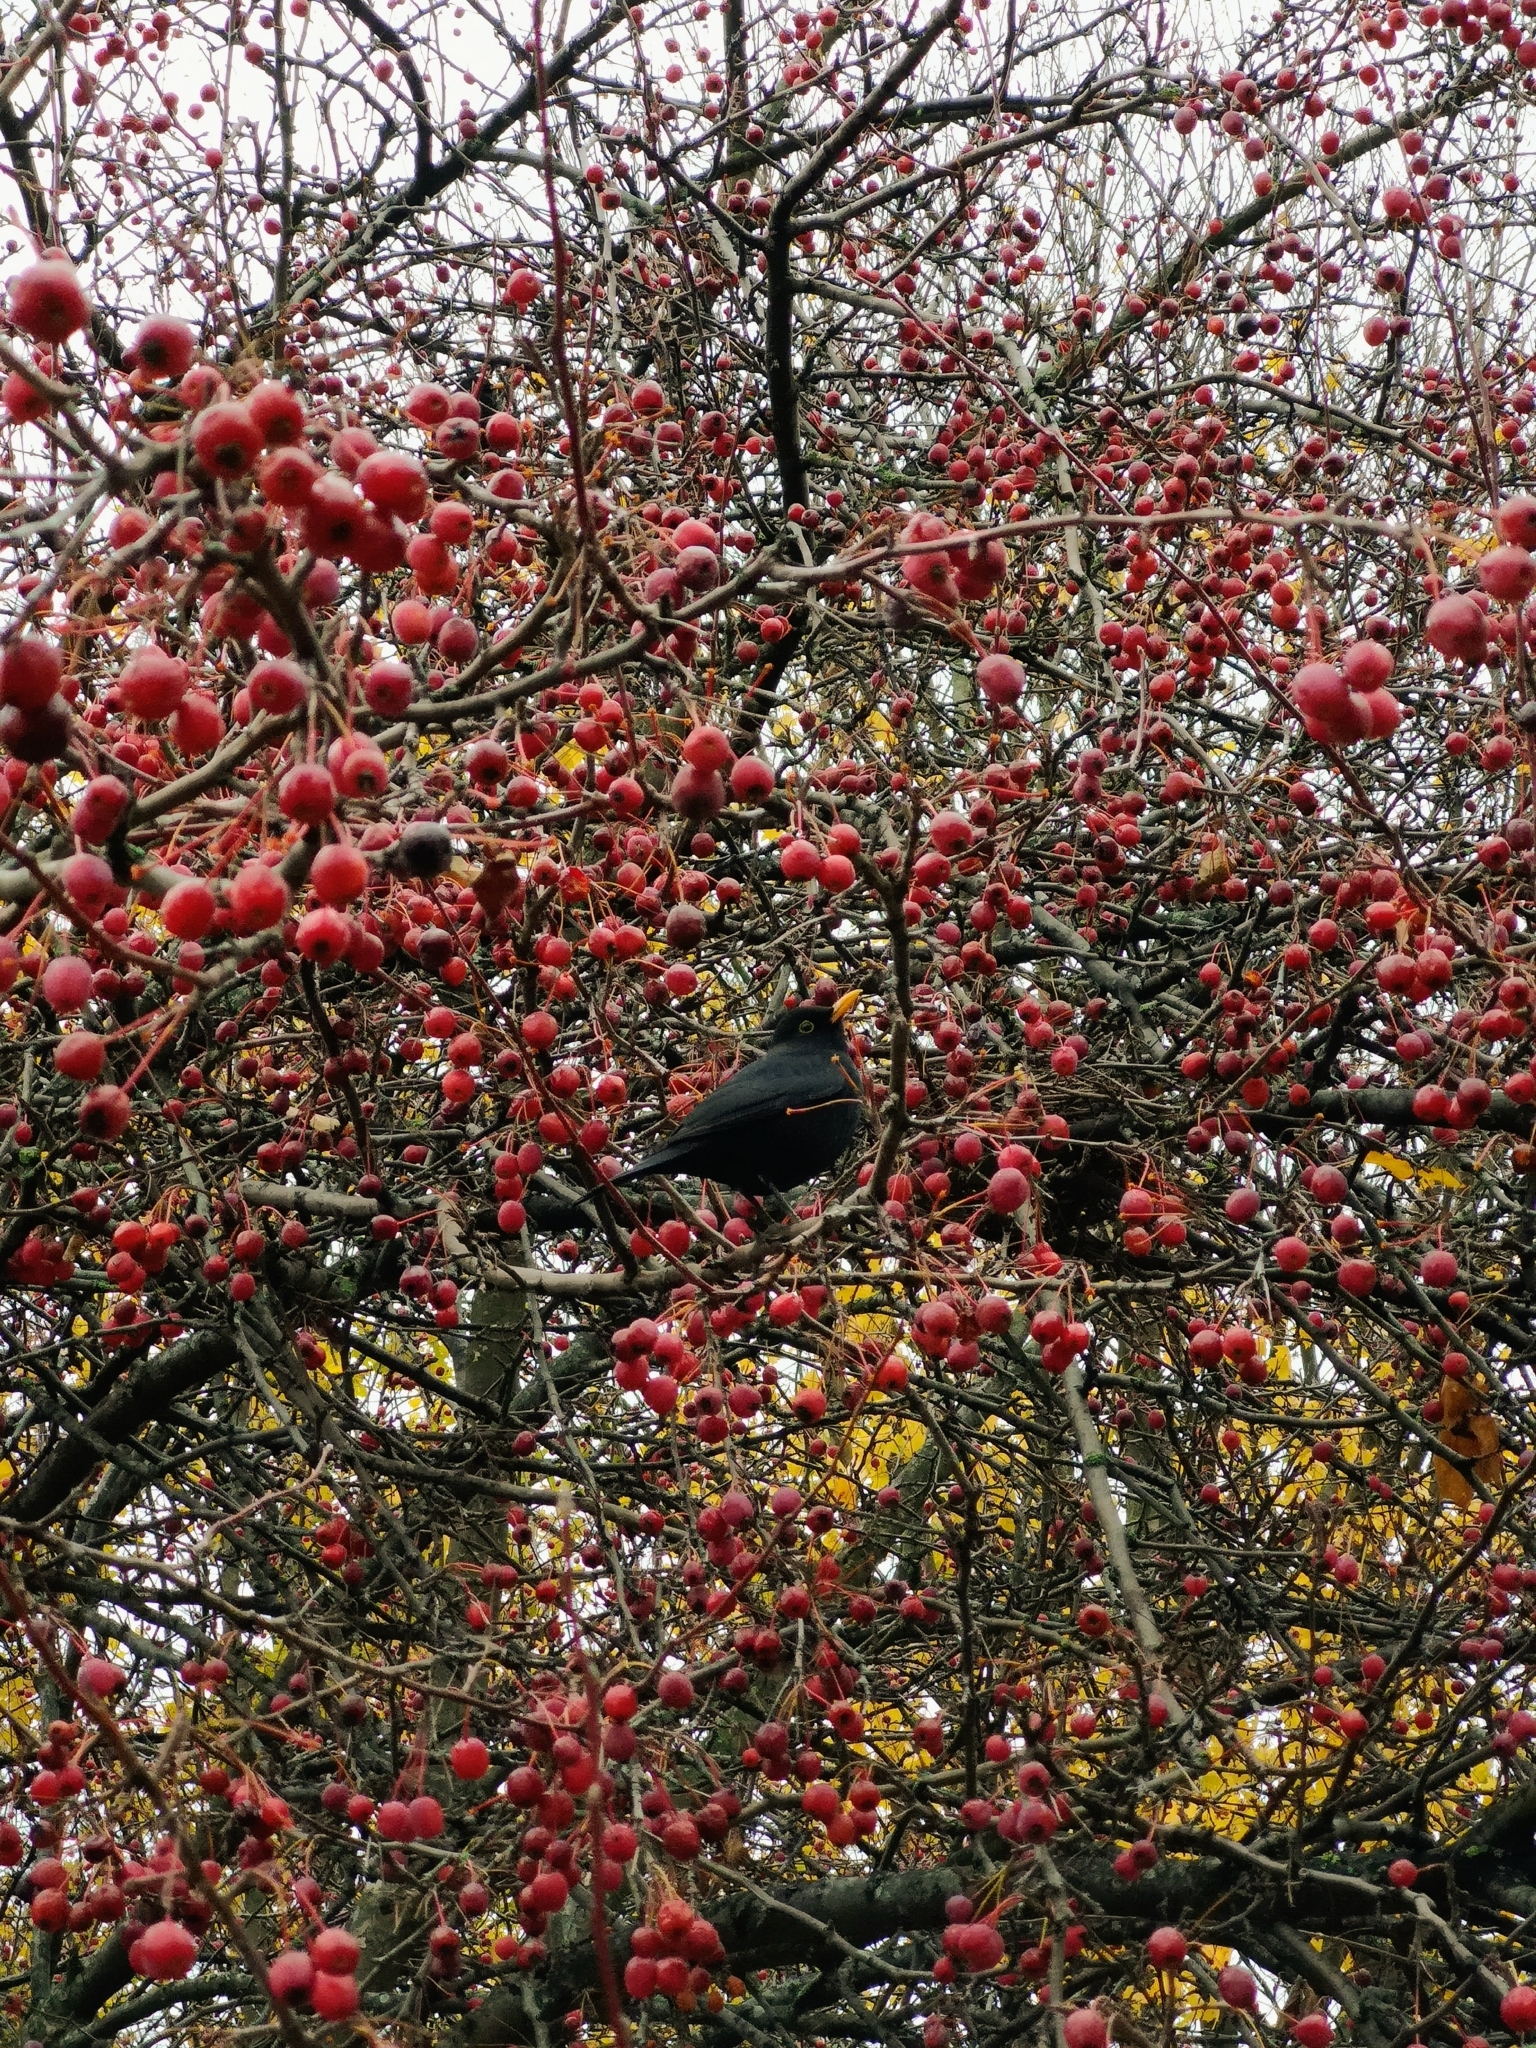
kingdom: Animalia
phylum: Chordata
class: Aves
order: Passeriformes
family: Turdidae
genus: Turdus
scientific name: Turdus merula
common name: Common blackbird
